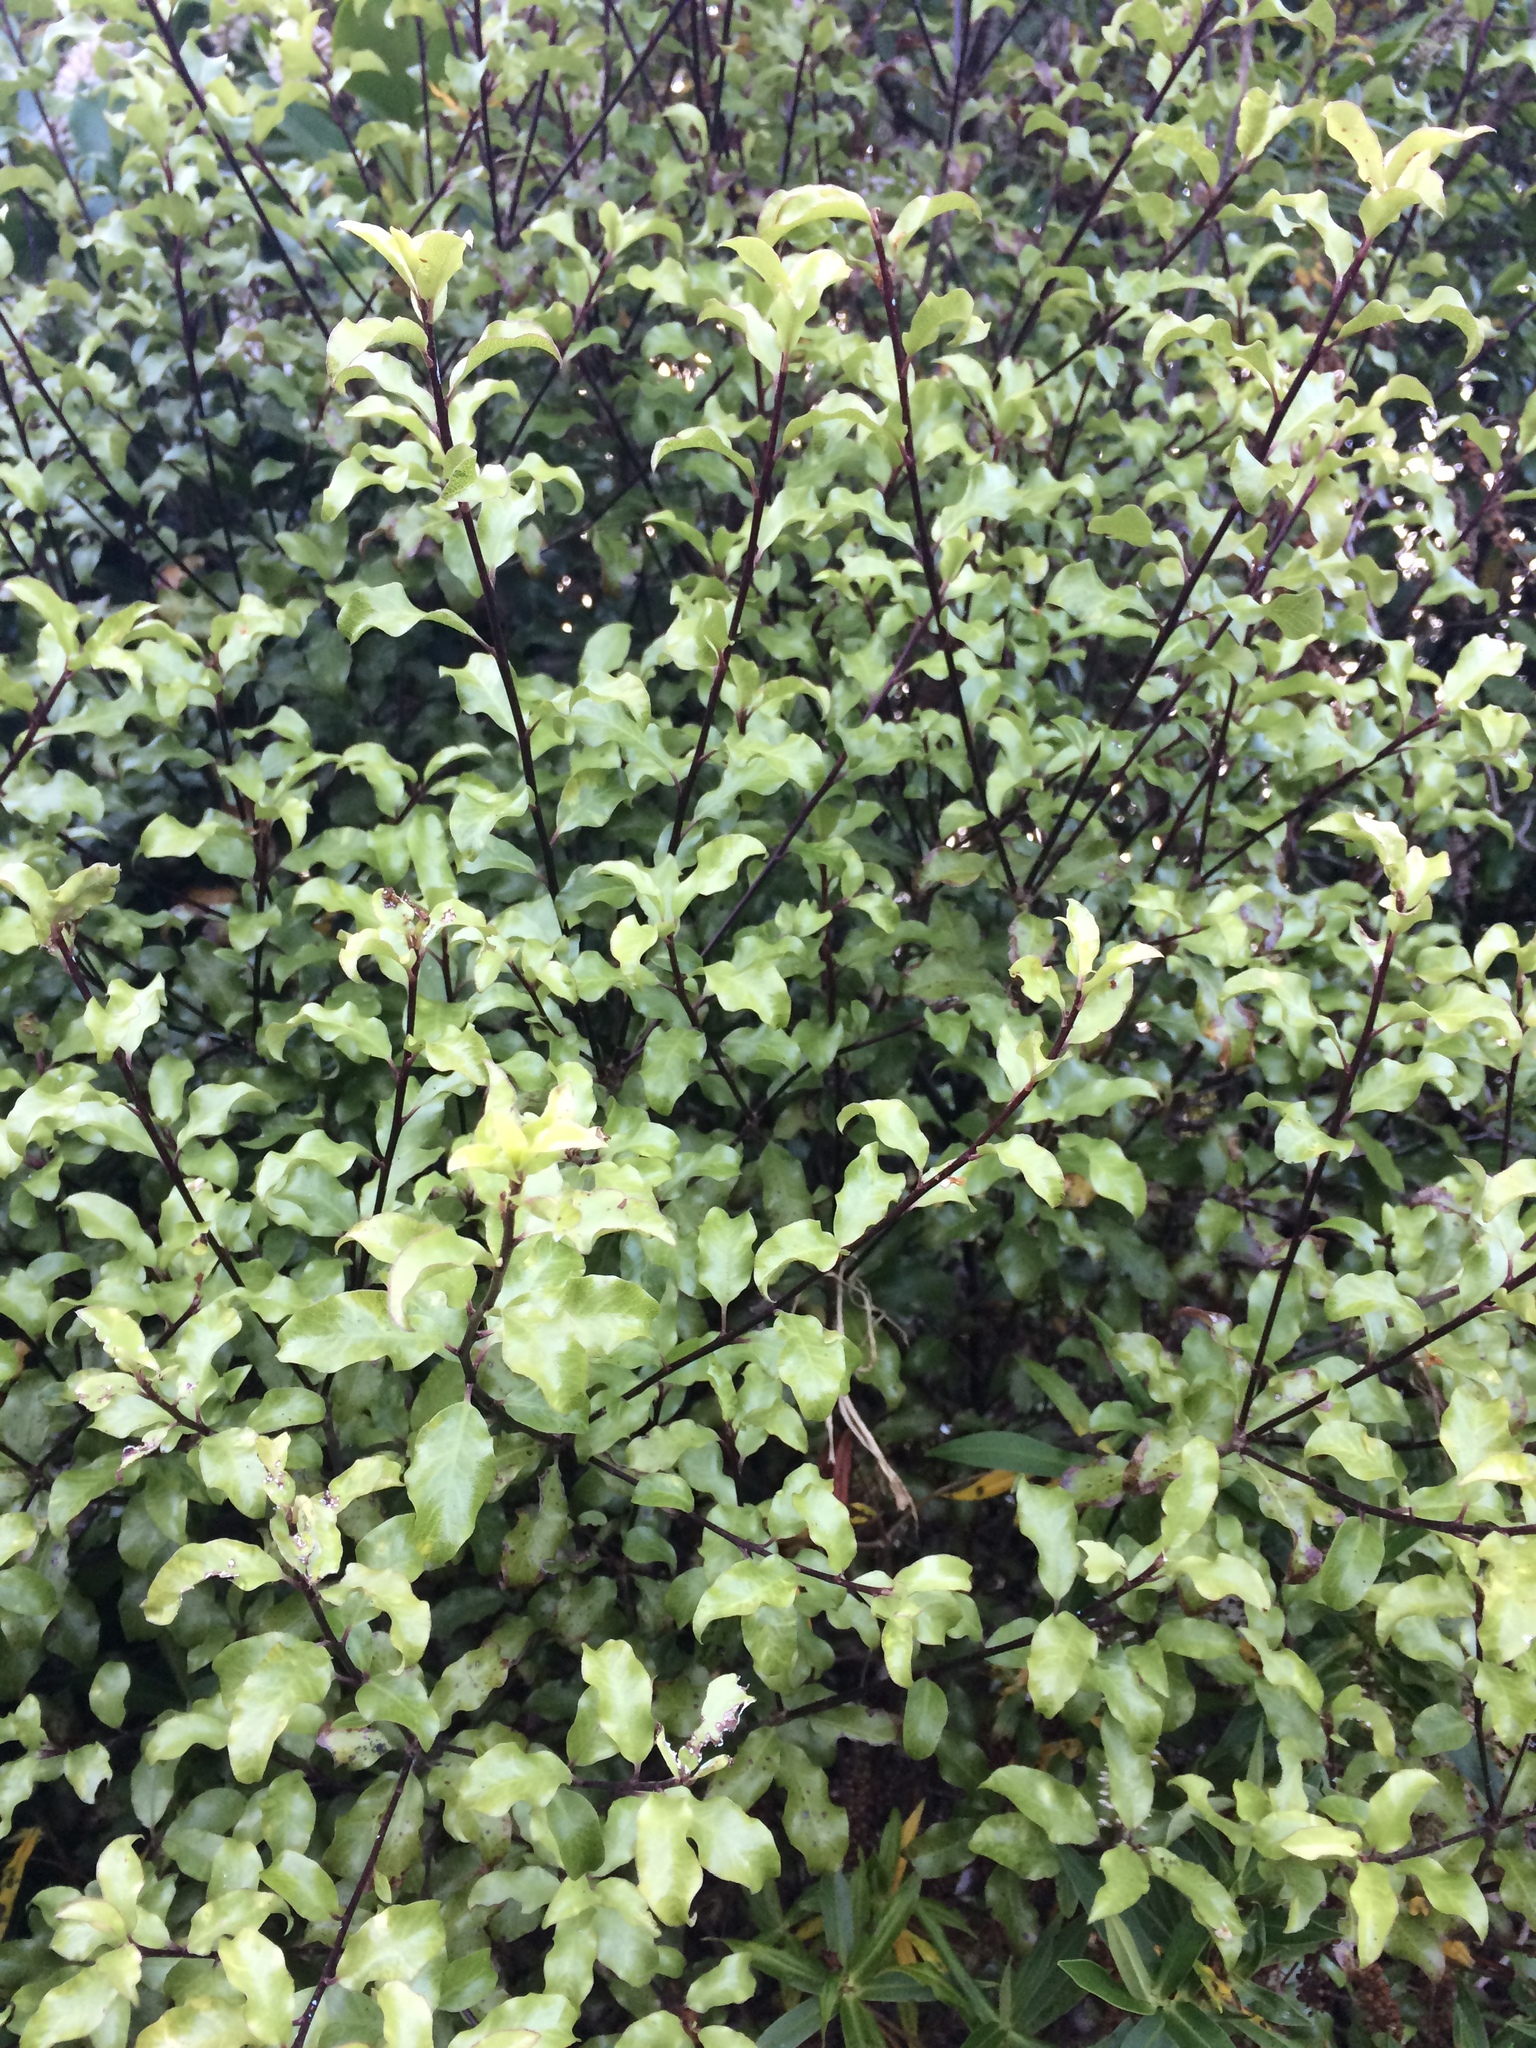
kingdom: Plantae
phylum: Tracheophyta
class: Magnoliopsida
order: Apiales
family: Pittosporaceae
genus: Pittosporum
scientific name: Pittosporum tenuifolium
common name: Kohuhu
